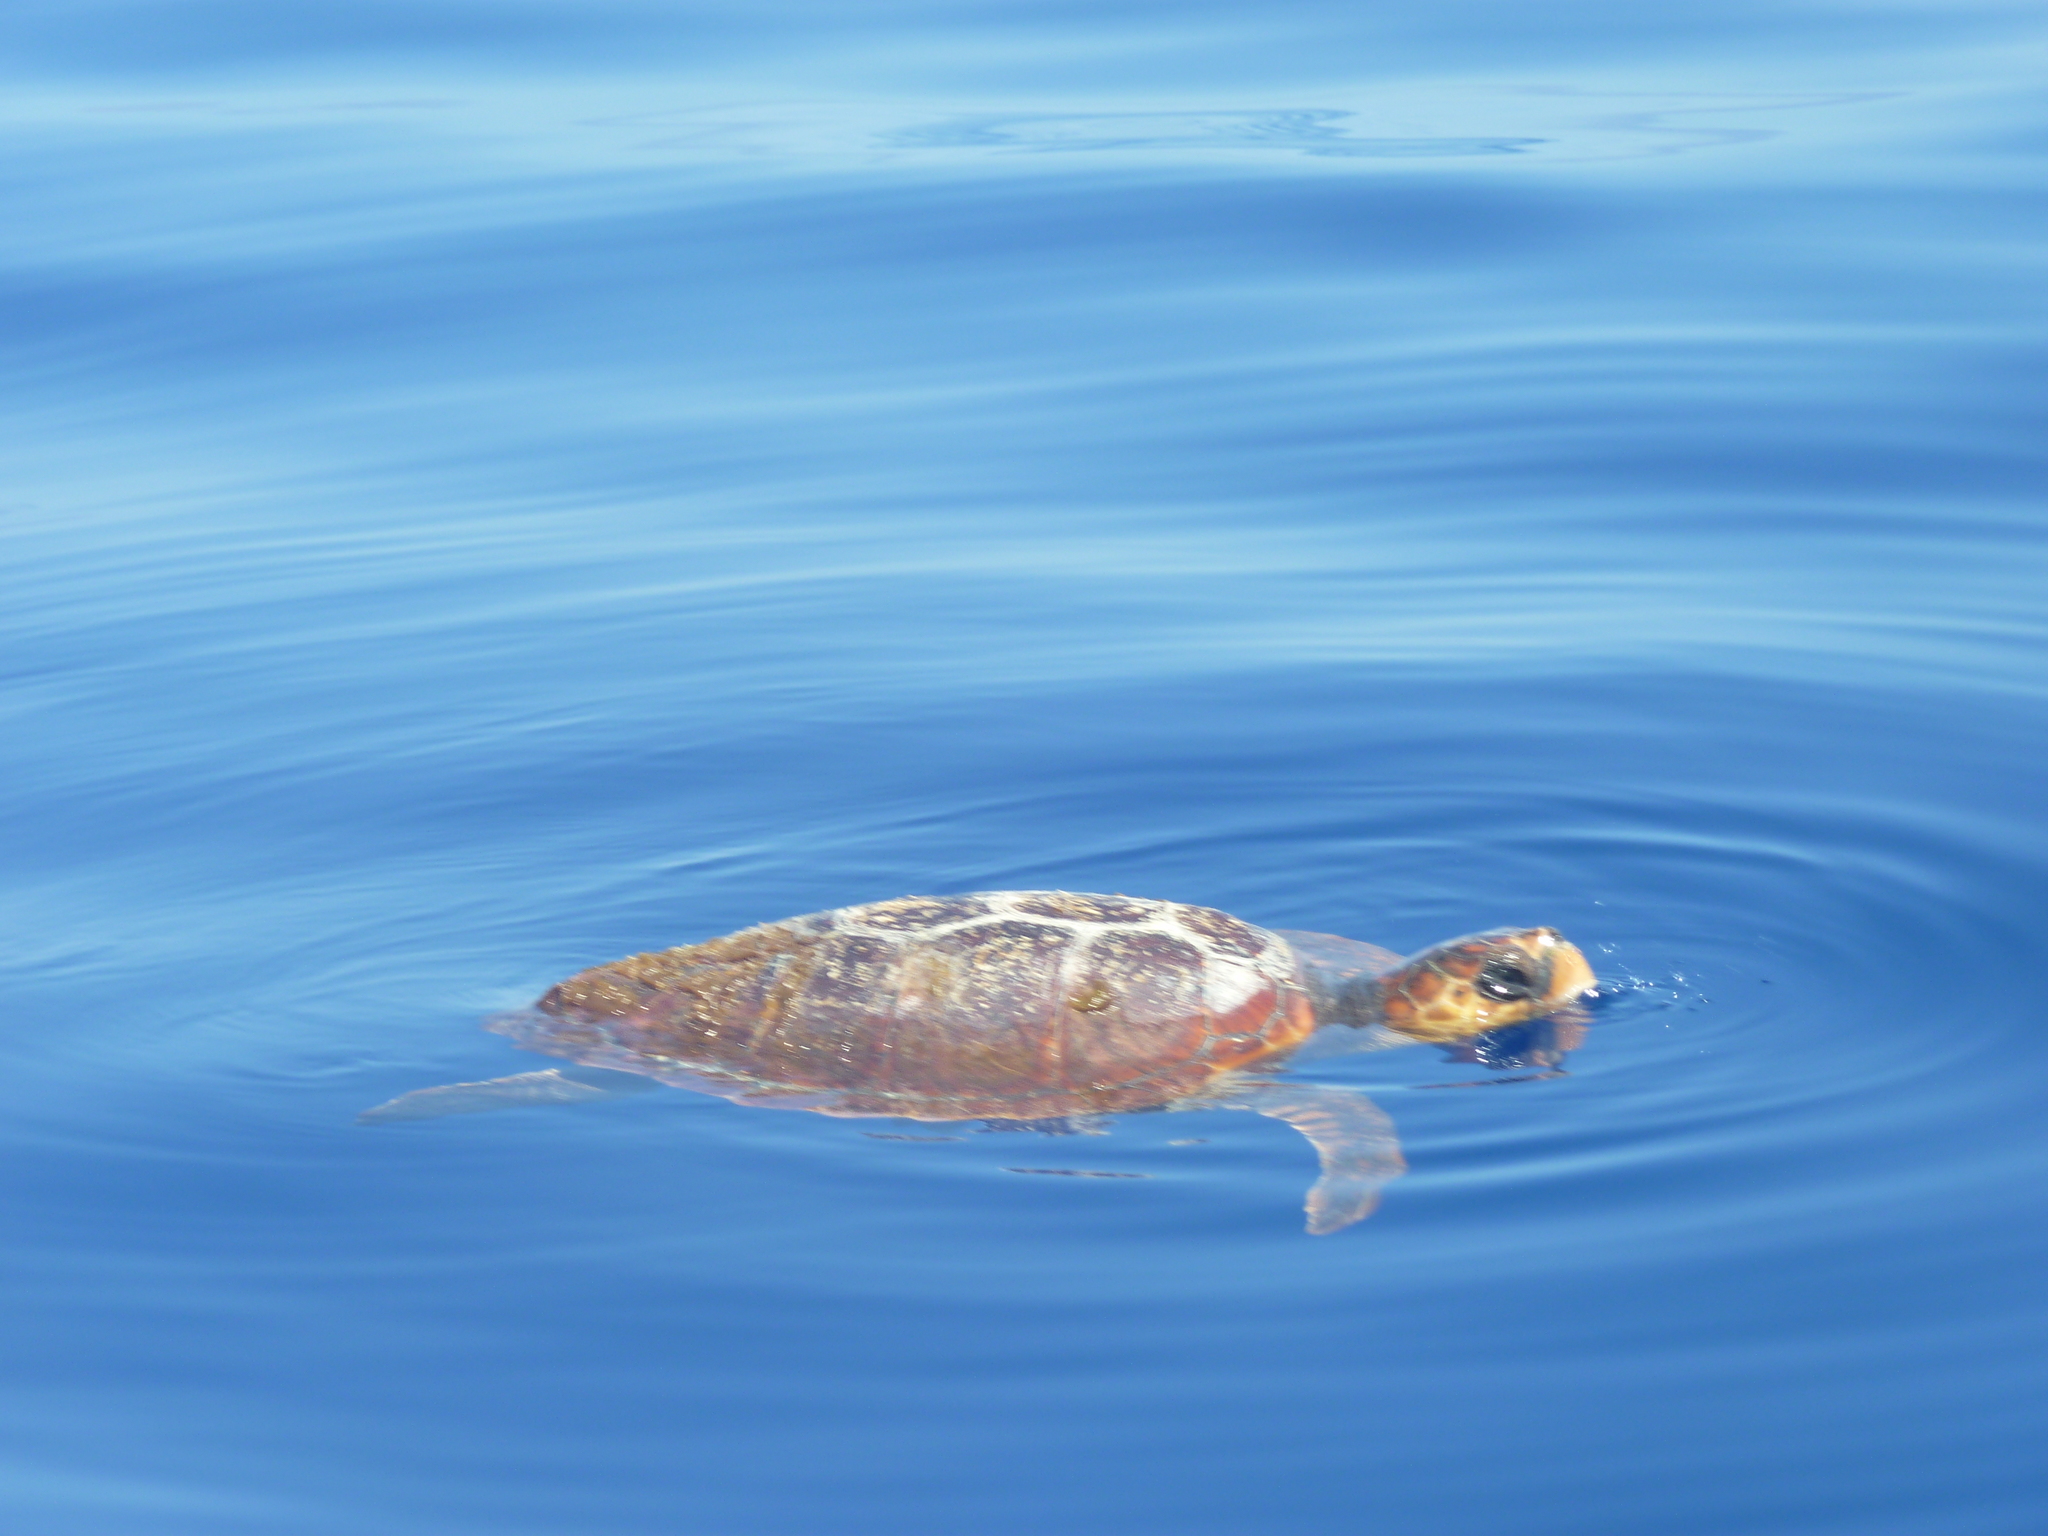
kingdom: Animalia
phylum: Chordata
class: Testudines
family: Cheloniidae
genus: Caretta
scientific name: Caretta caretta
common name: Loggerhead sea turtle
